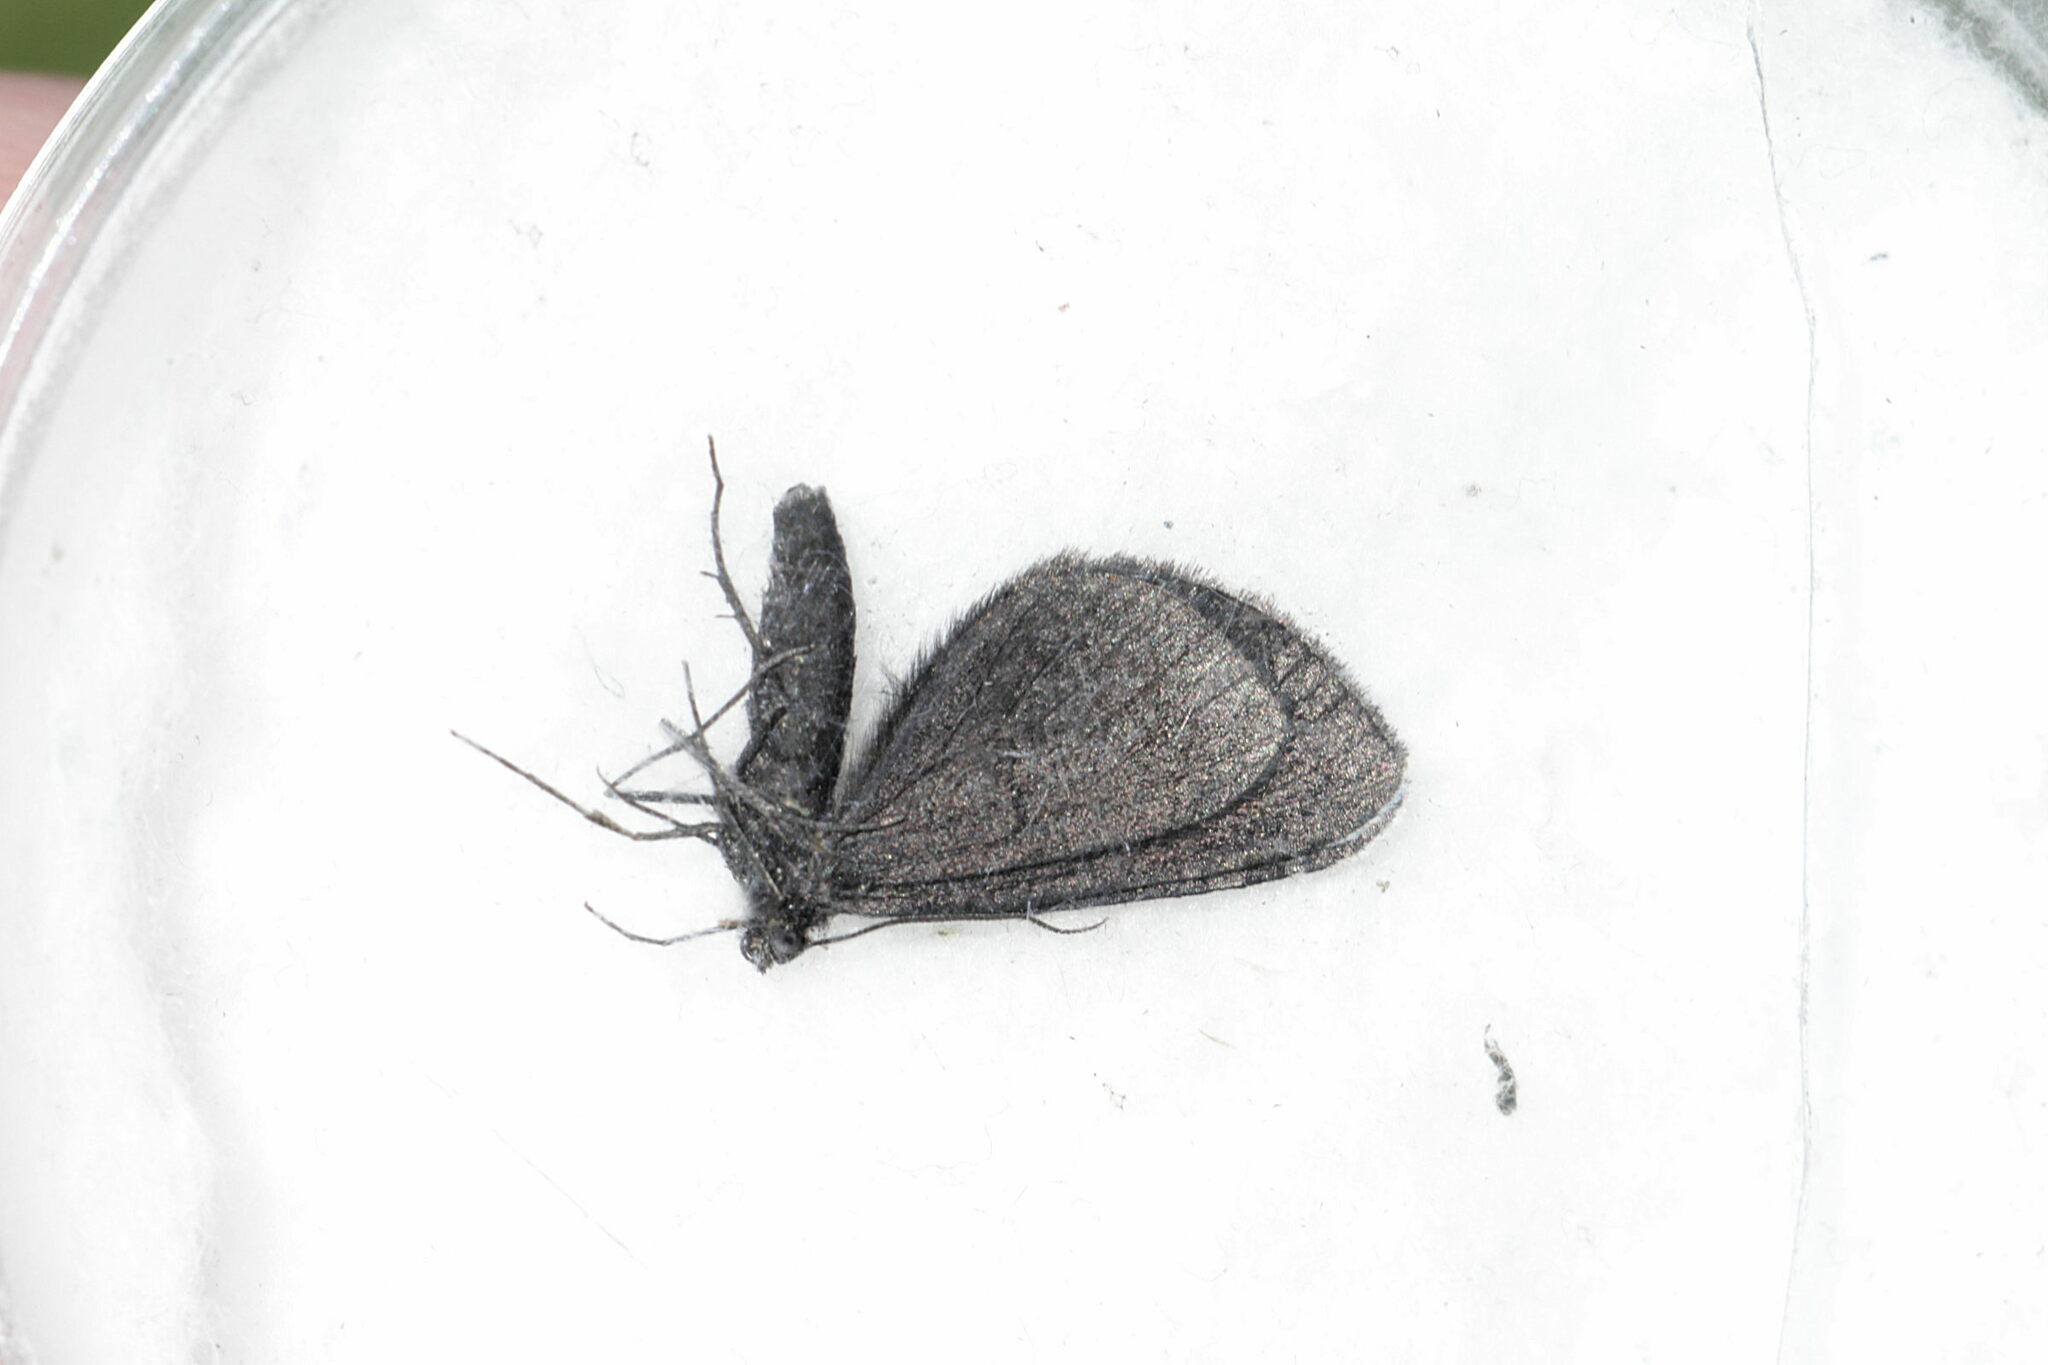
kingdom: Animalia
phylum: Arthropoda
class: Insecta
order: Lepidoptera
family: Geometridae
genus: Odezia
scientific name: Odezia atrata
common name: Chimney sweeper
